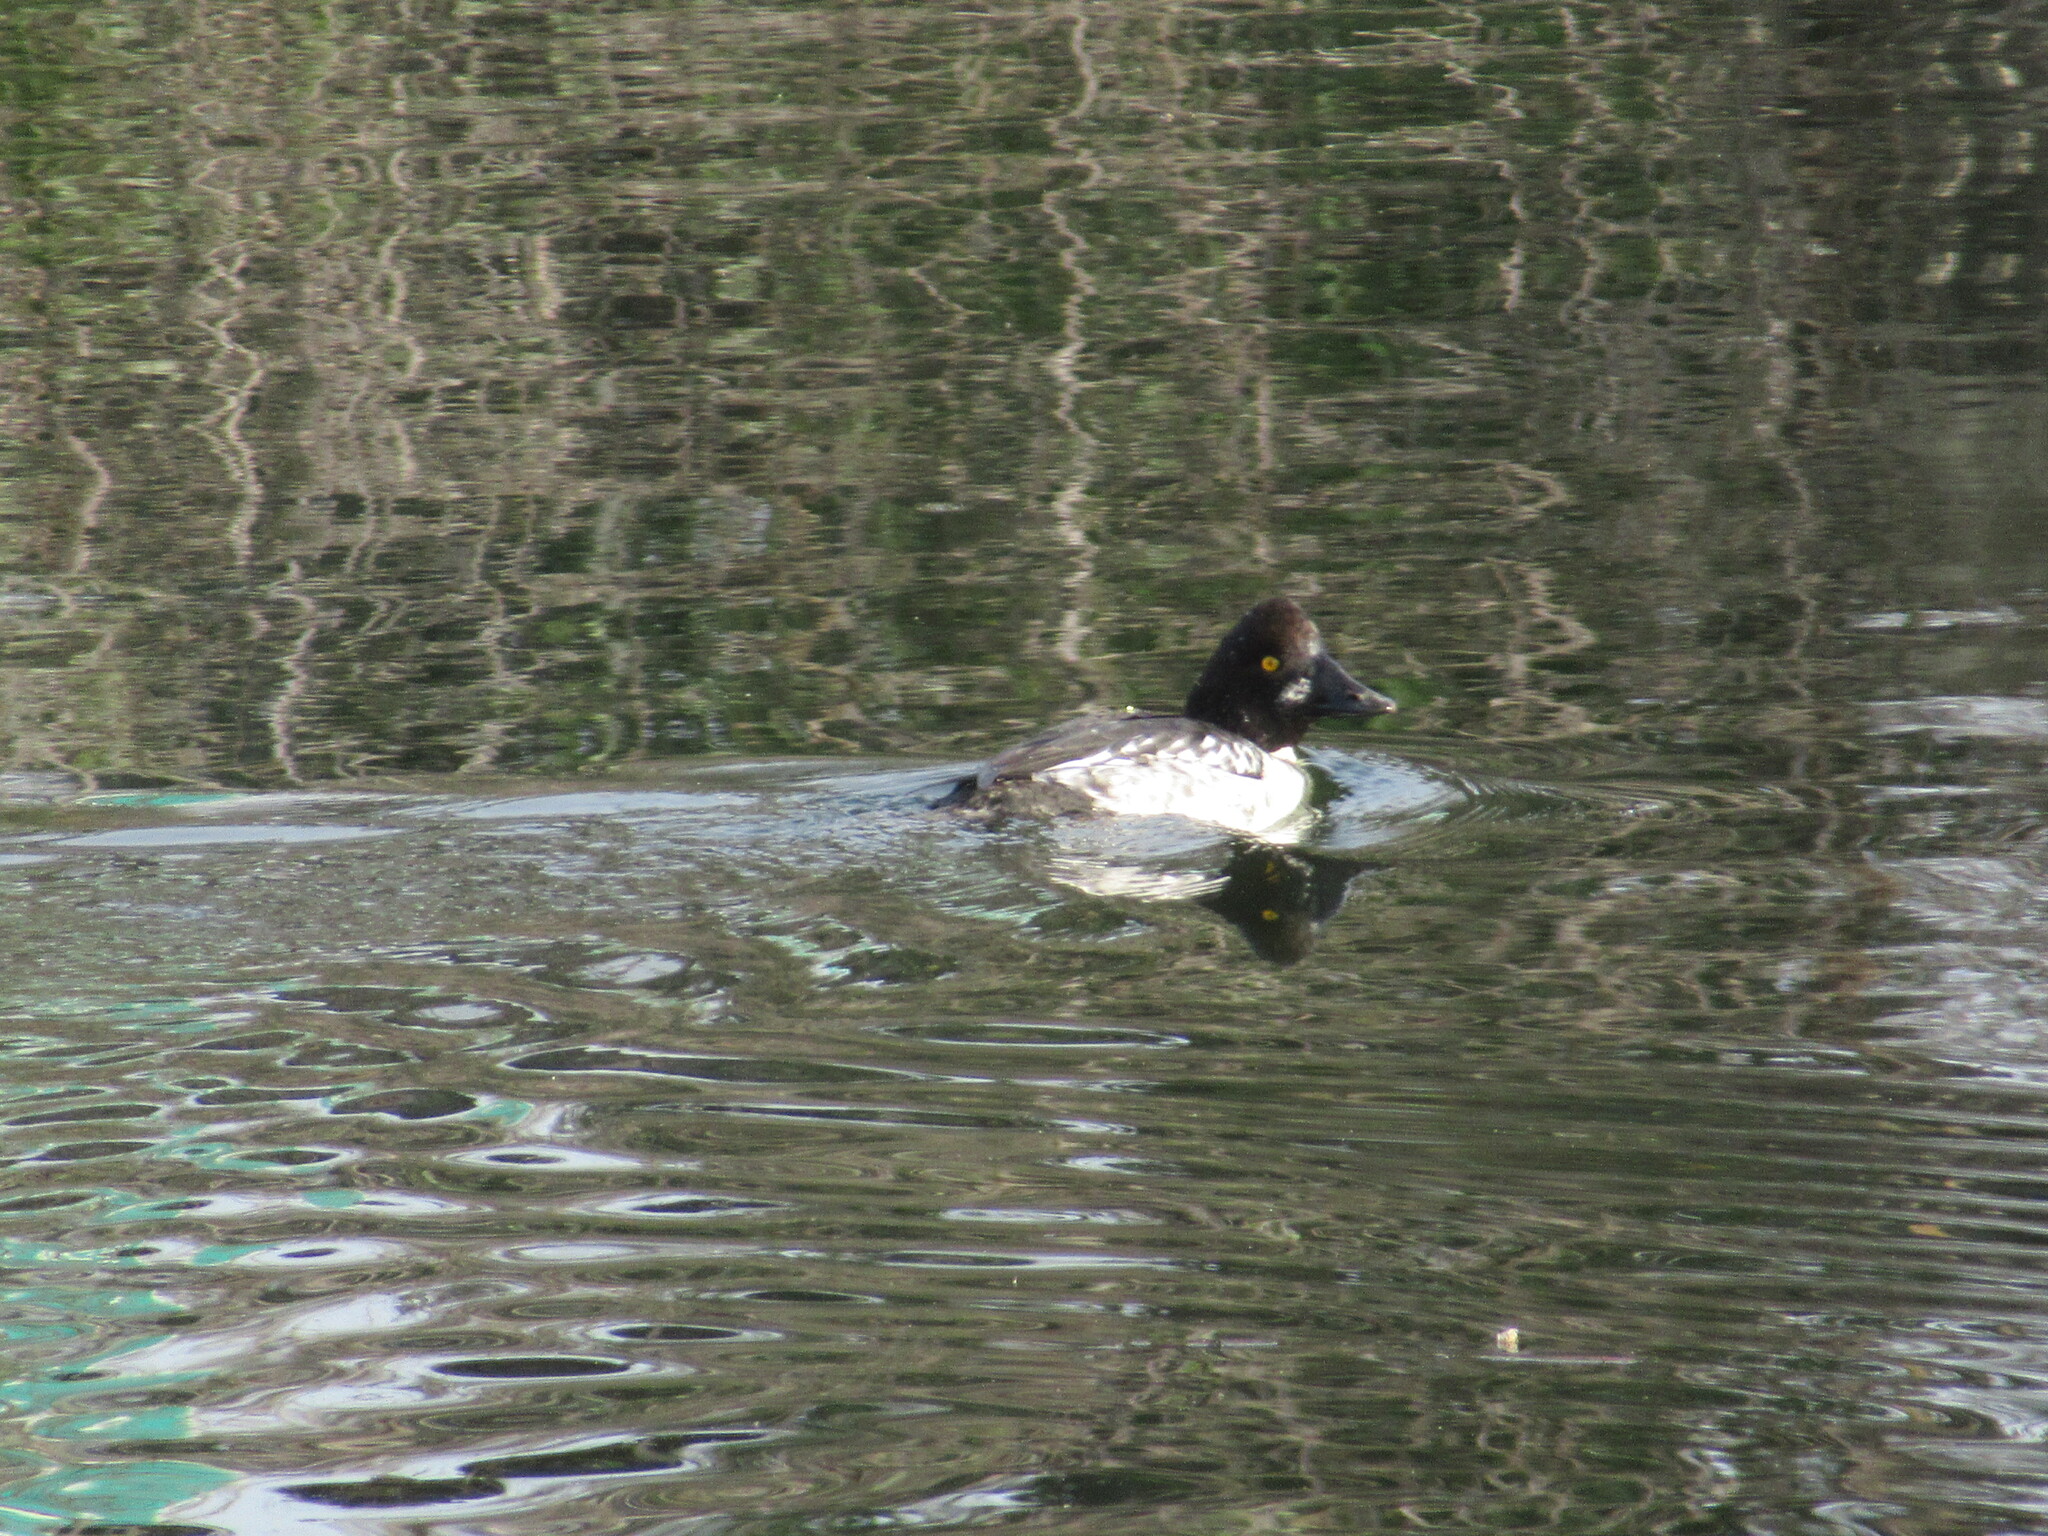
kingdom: Animalia
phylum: Chordata
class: Aves
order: Anseriformes
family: Anatidae
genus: Bucephala
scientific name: Bucephala clangula
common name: Common goldeneye
